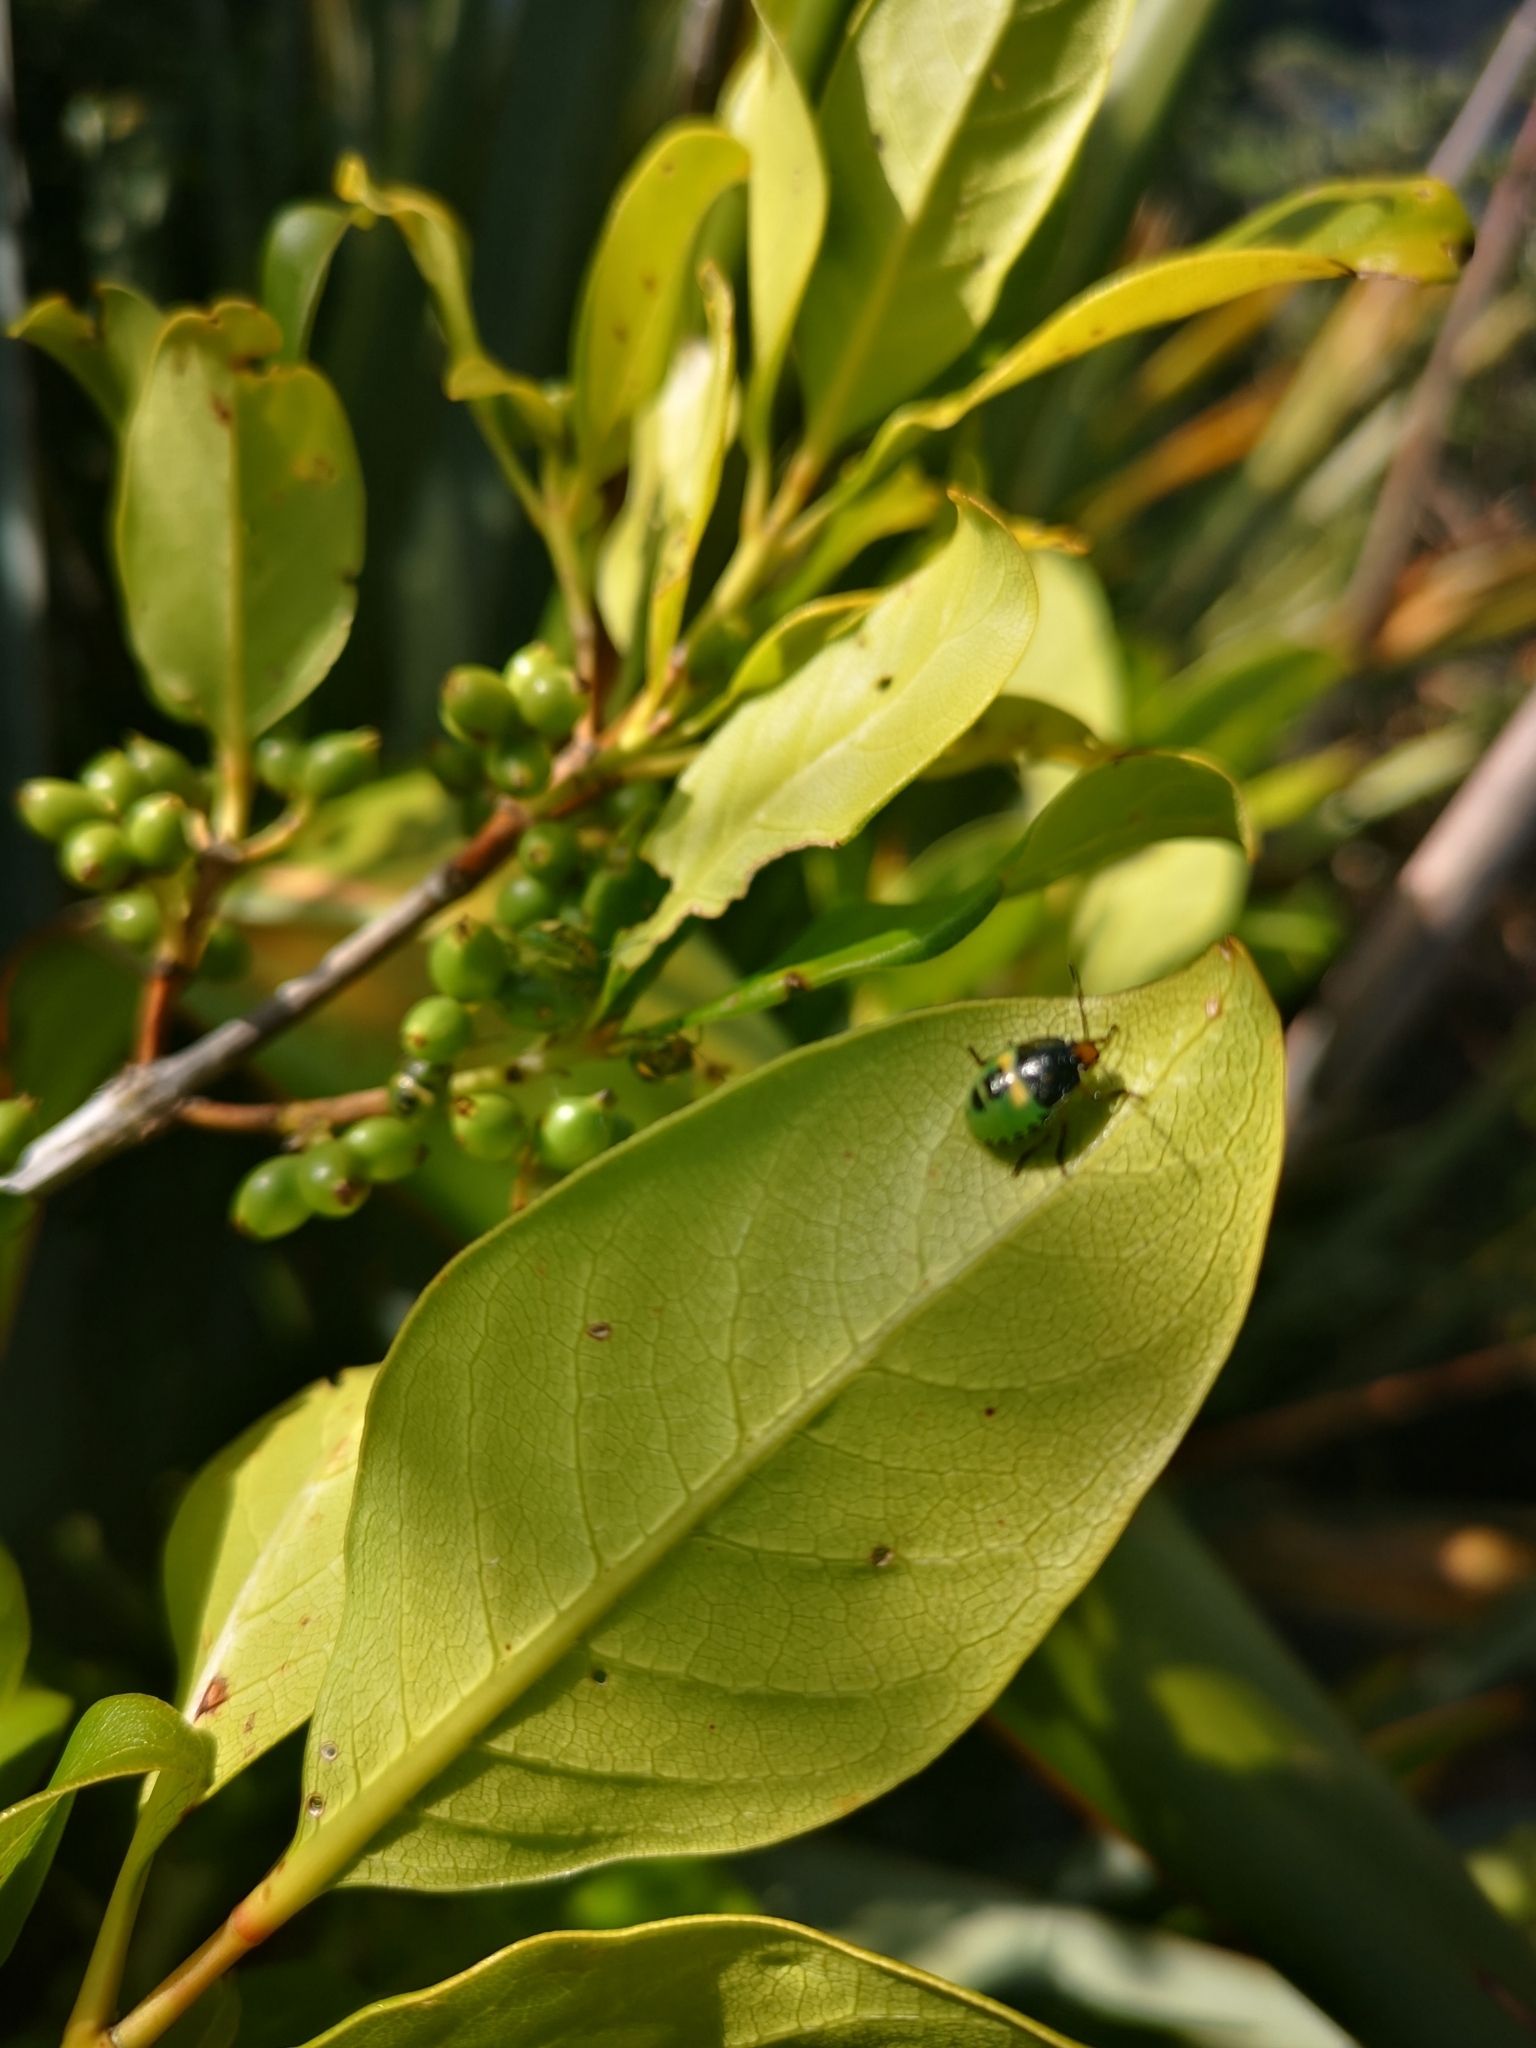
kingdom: Animalia
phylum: Arthropoda
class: Insecta
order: Hemiptera
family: Pentatomidae
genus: Glaucias
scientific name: Glaucias amyota
